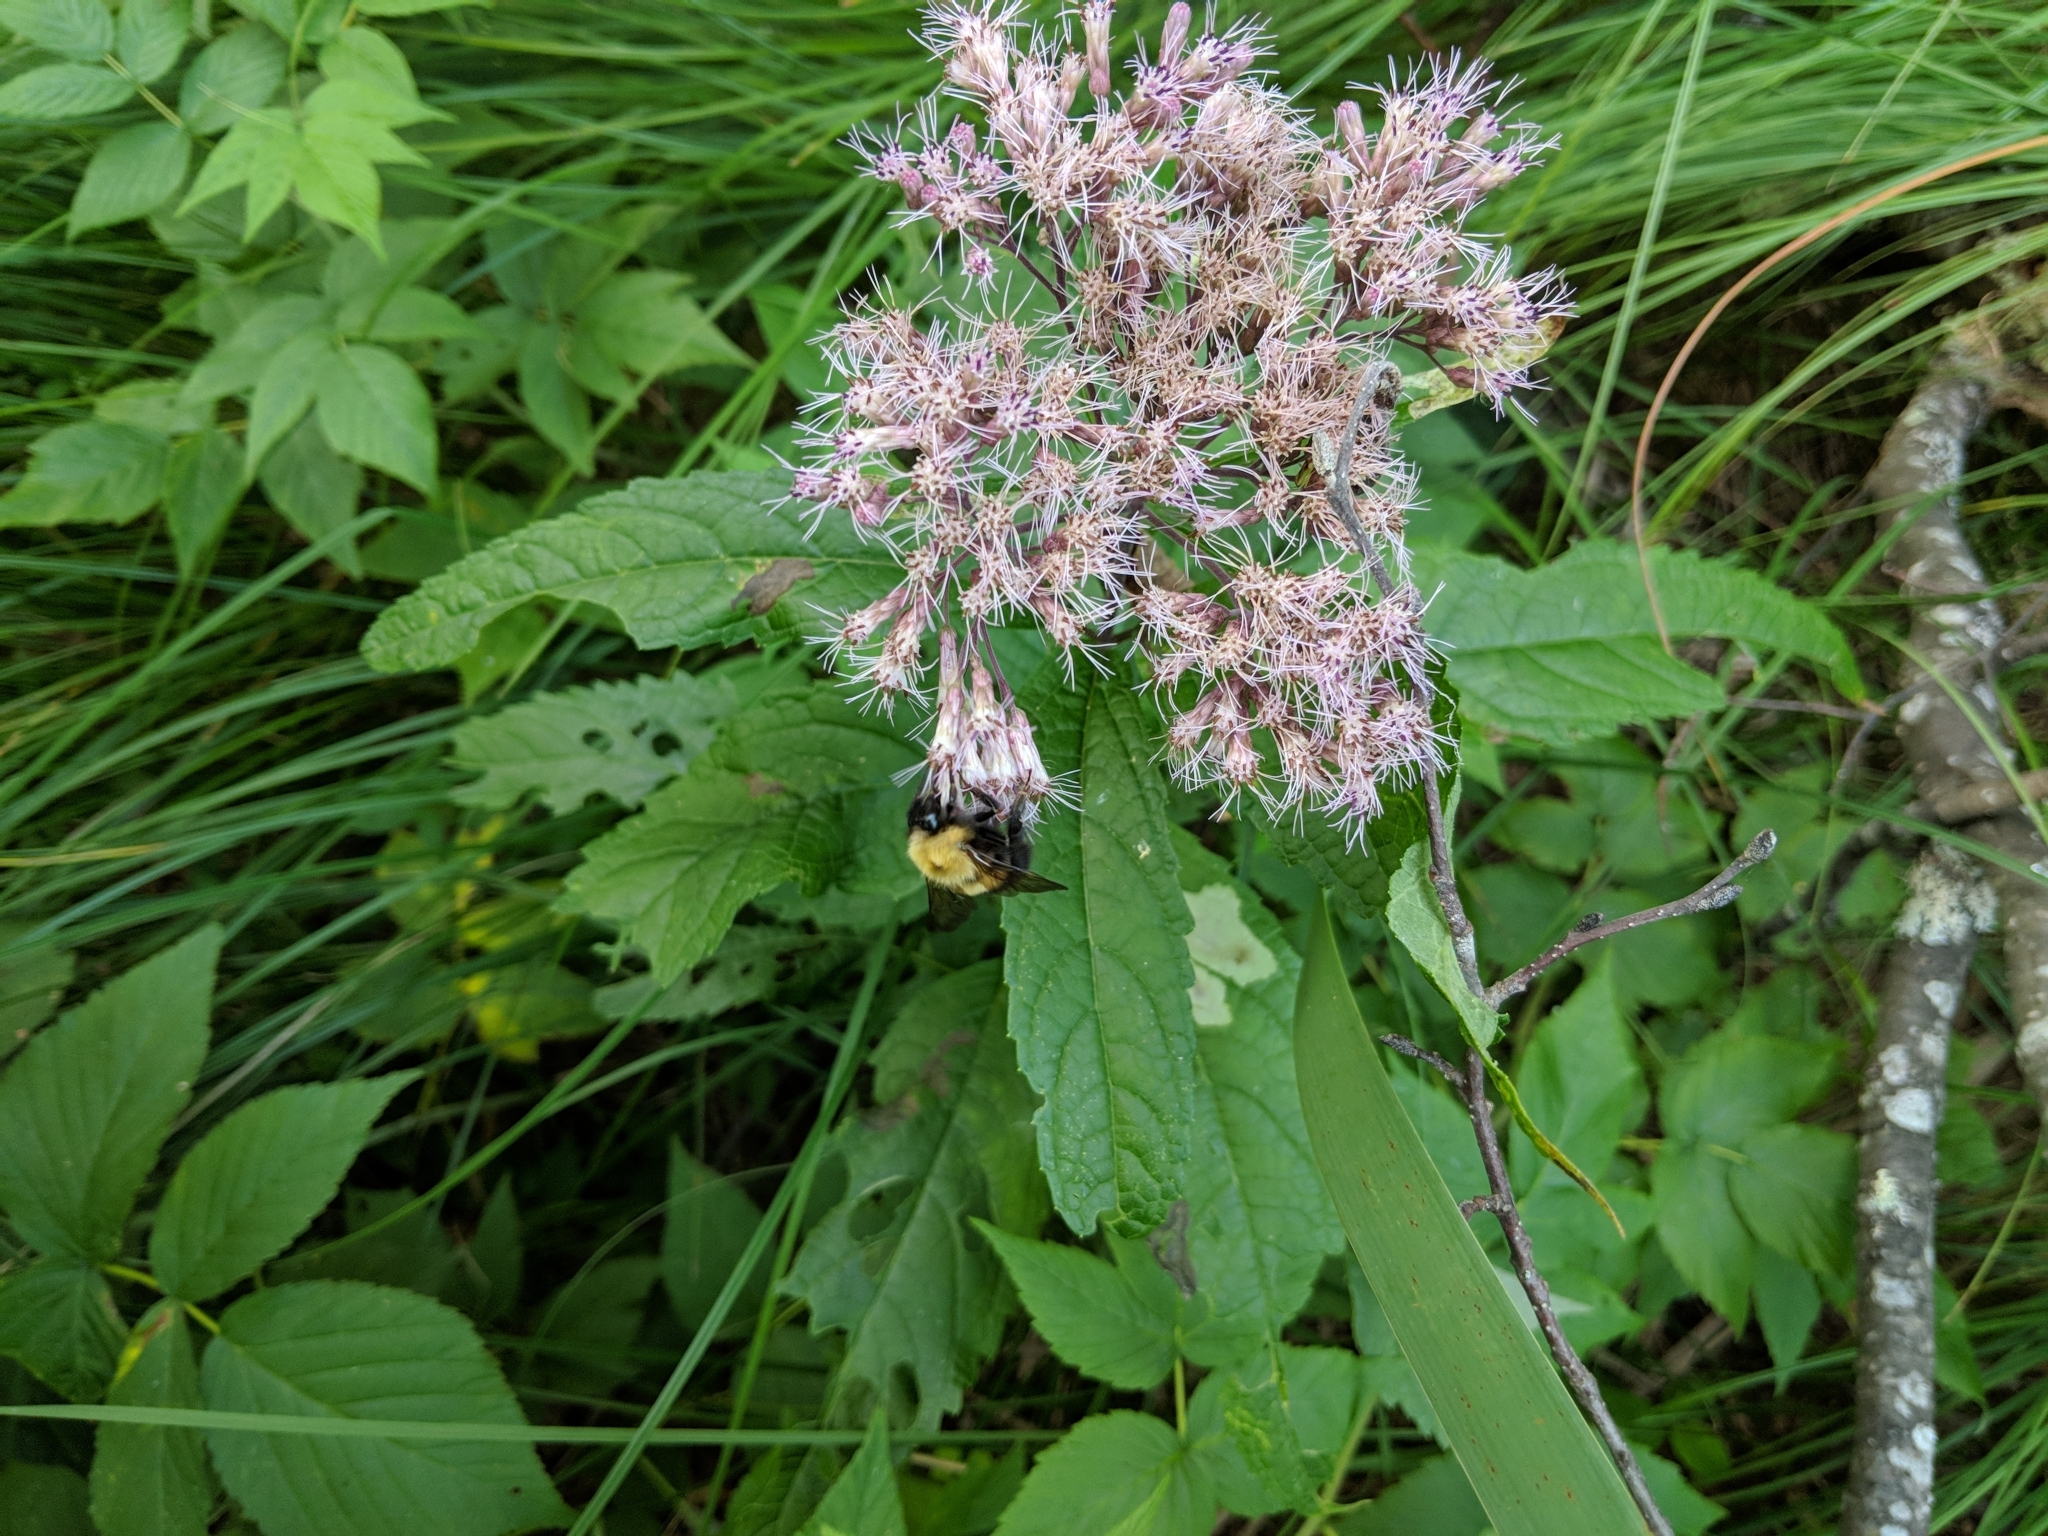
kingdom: Plantae
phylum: Tracheophyta
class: Magnoliopsida
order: Asterales
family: Asteraceae
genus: Eutrochium
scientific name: Eutrochium maculatum
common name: Spotted joe pye weed
